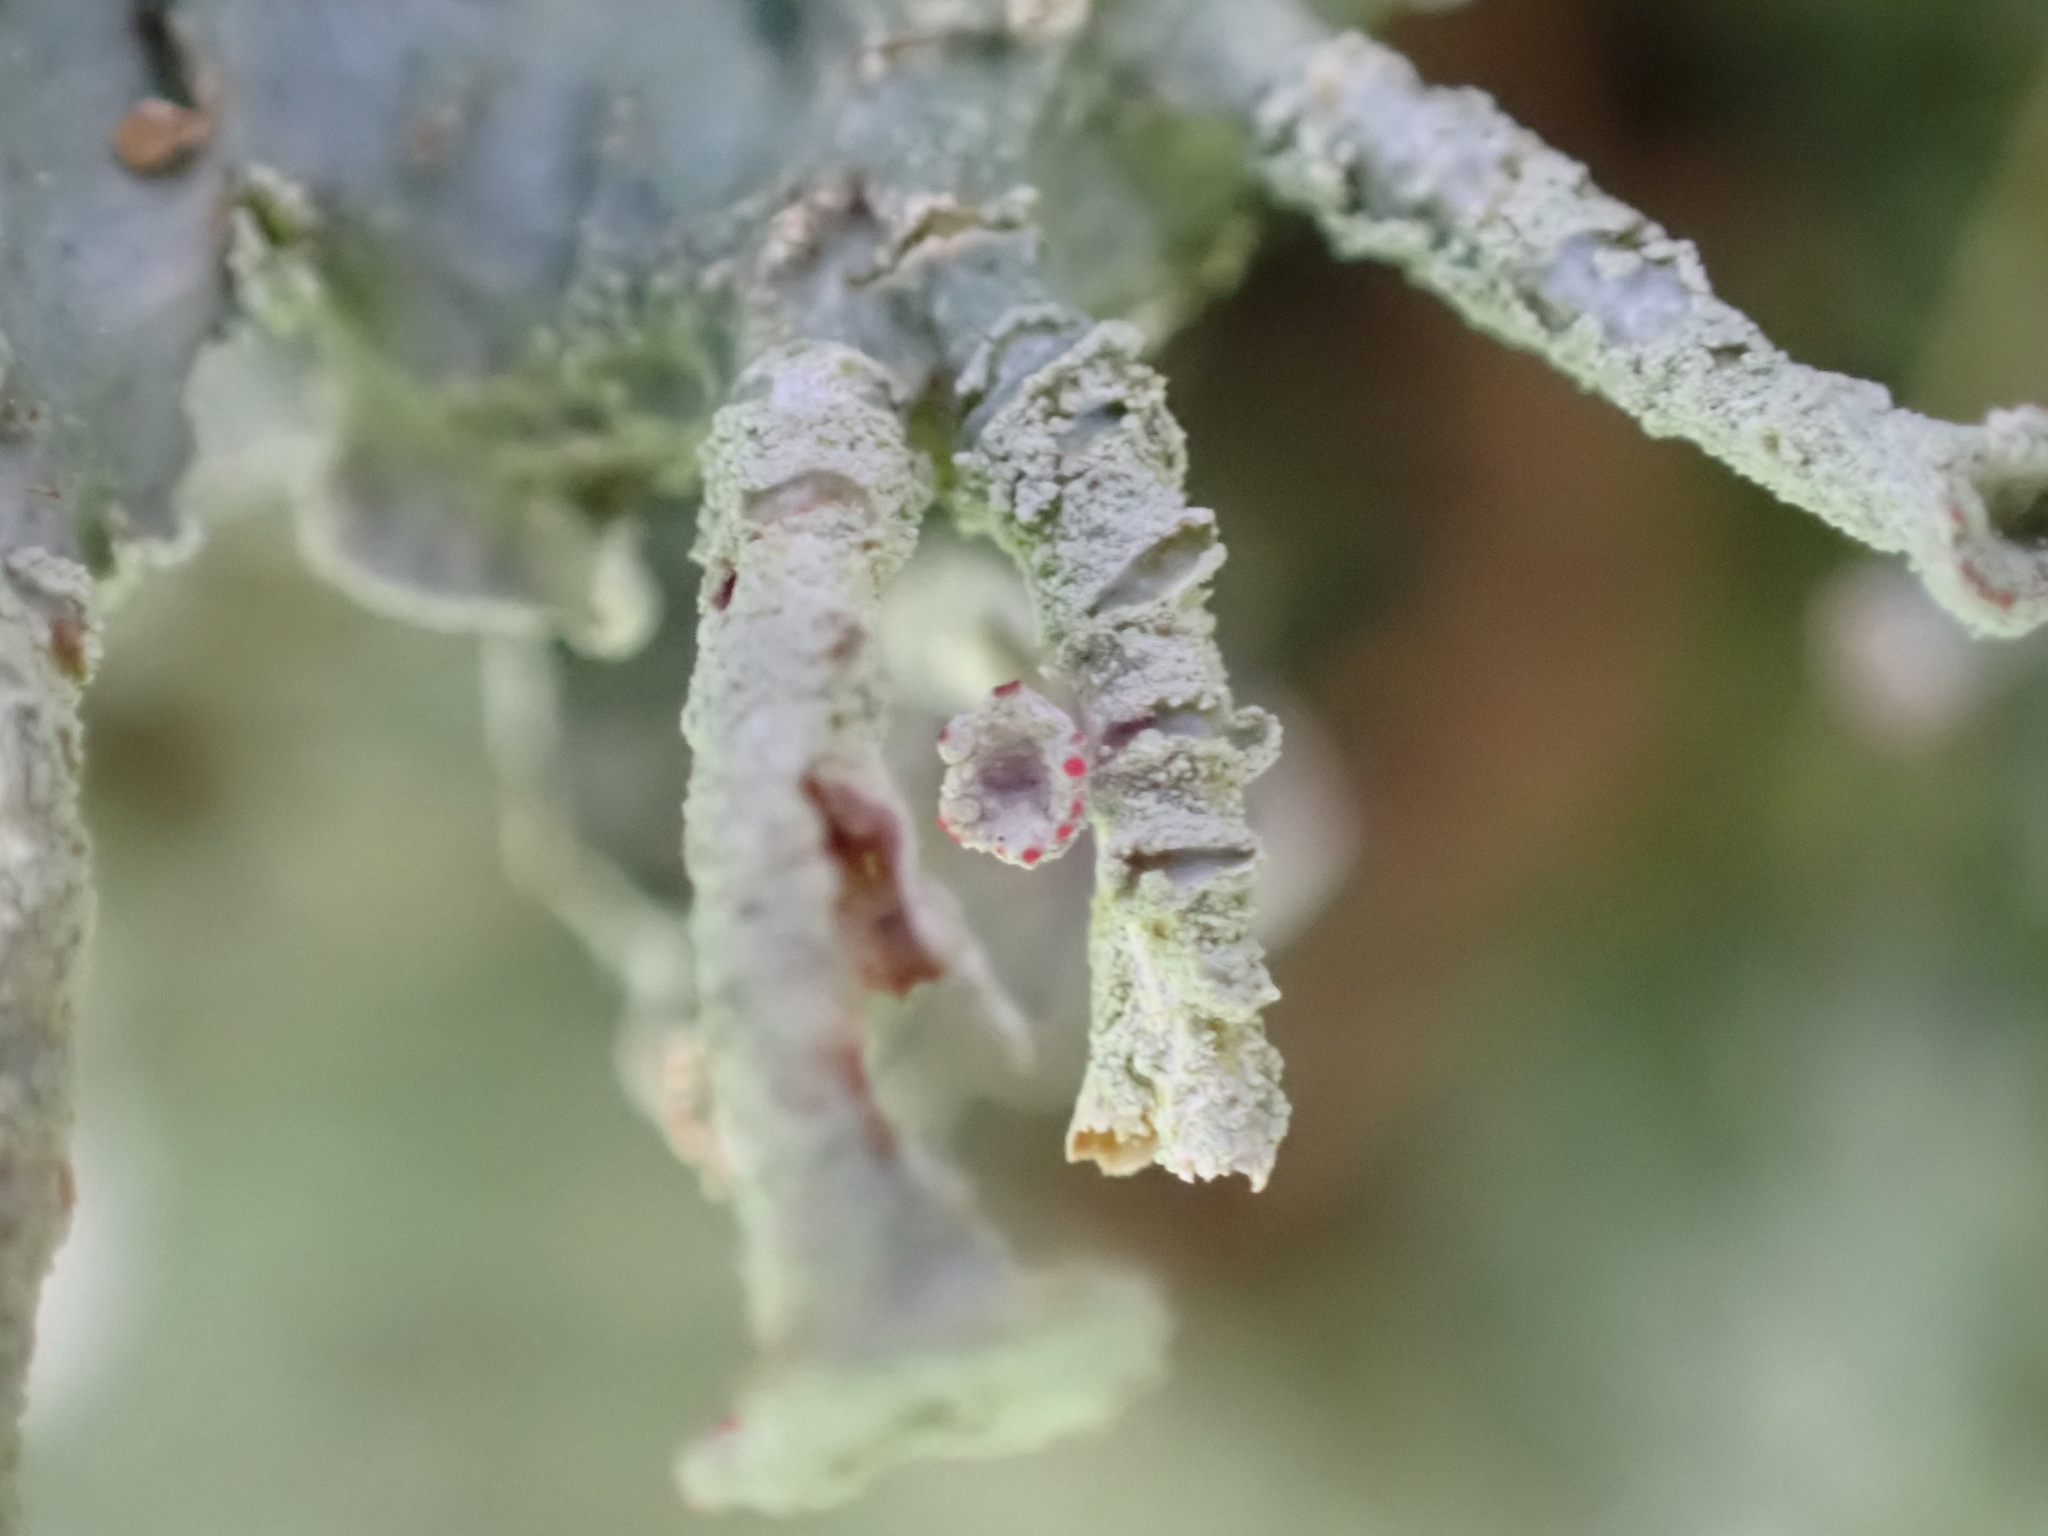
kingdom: Fungi
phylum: Ascomycota
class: Lecanoromycetes
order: Lecanorales
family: Cladoniaceae
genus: Cladonia
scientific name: Cladonia digitata
